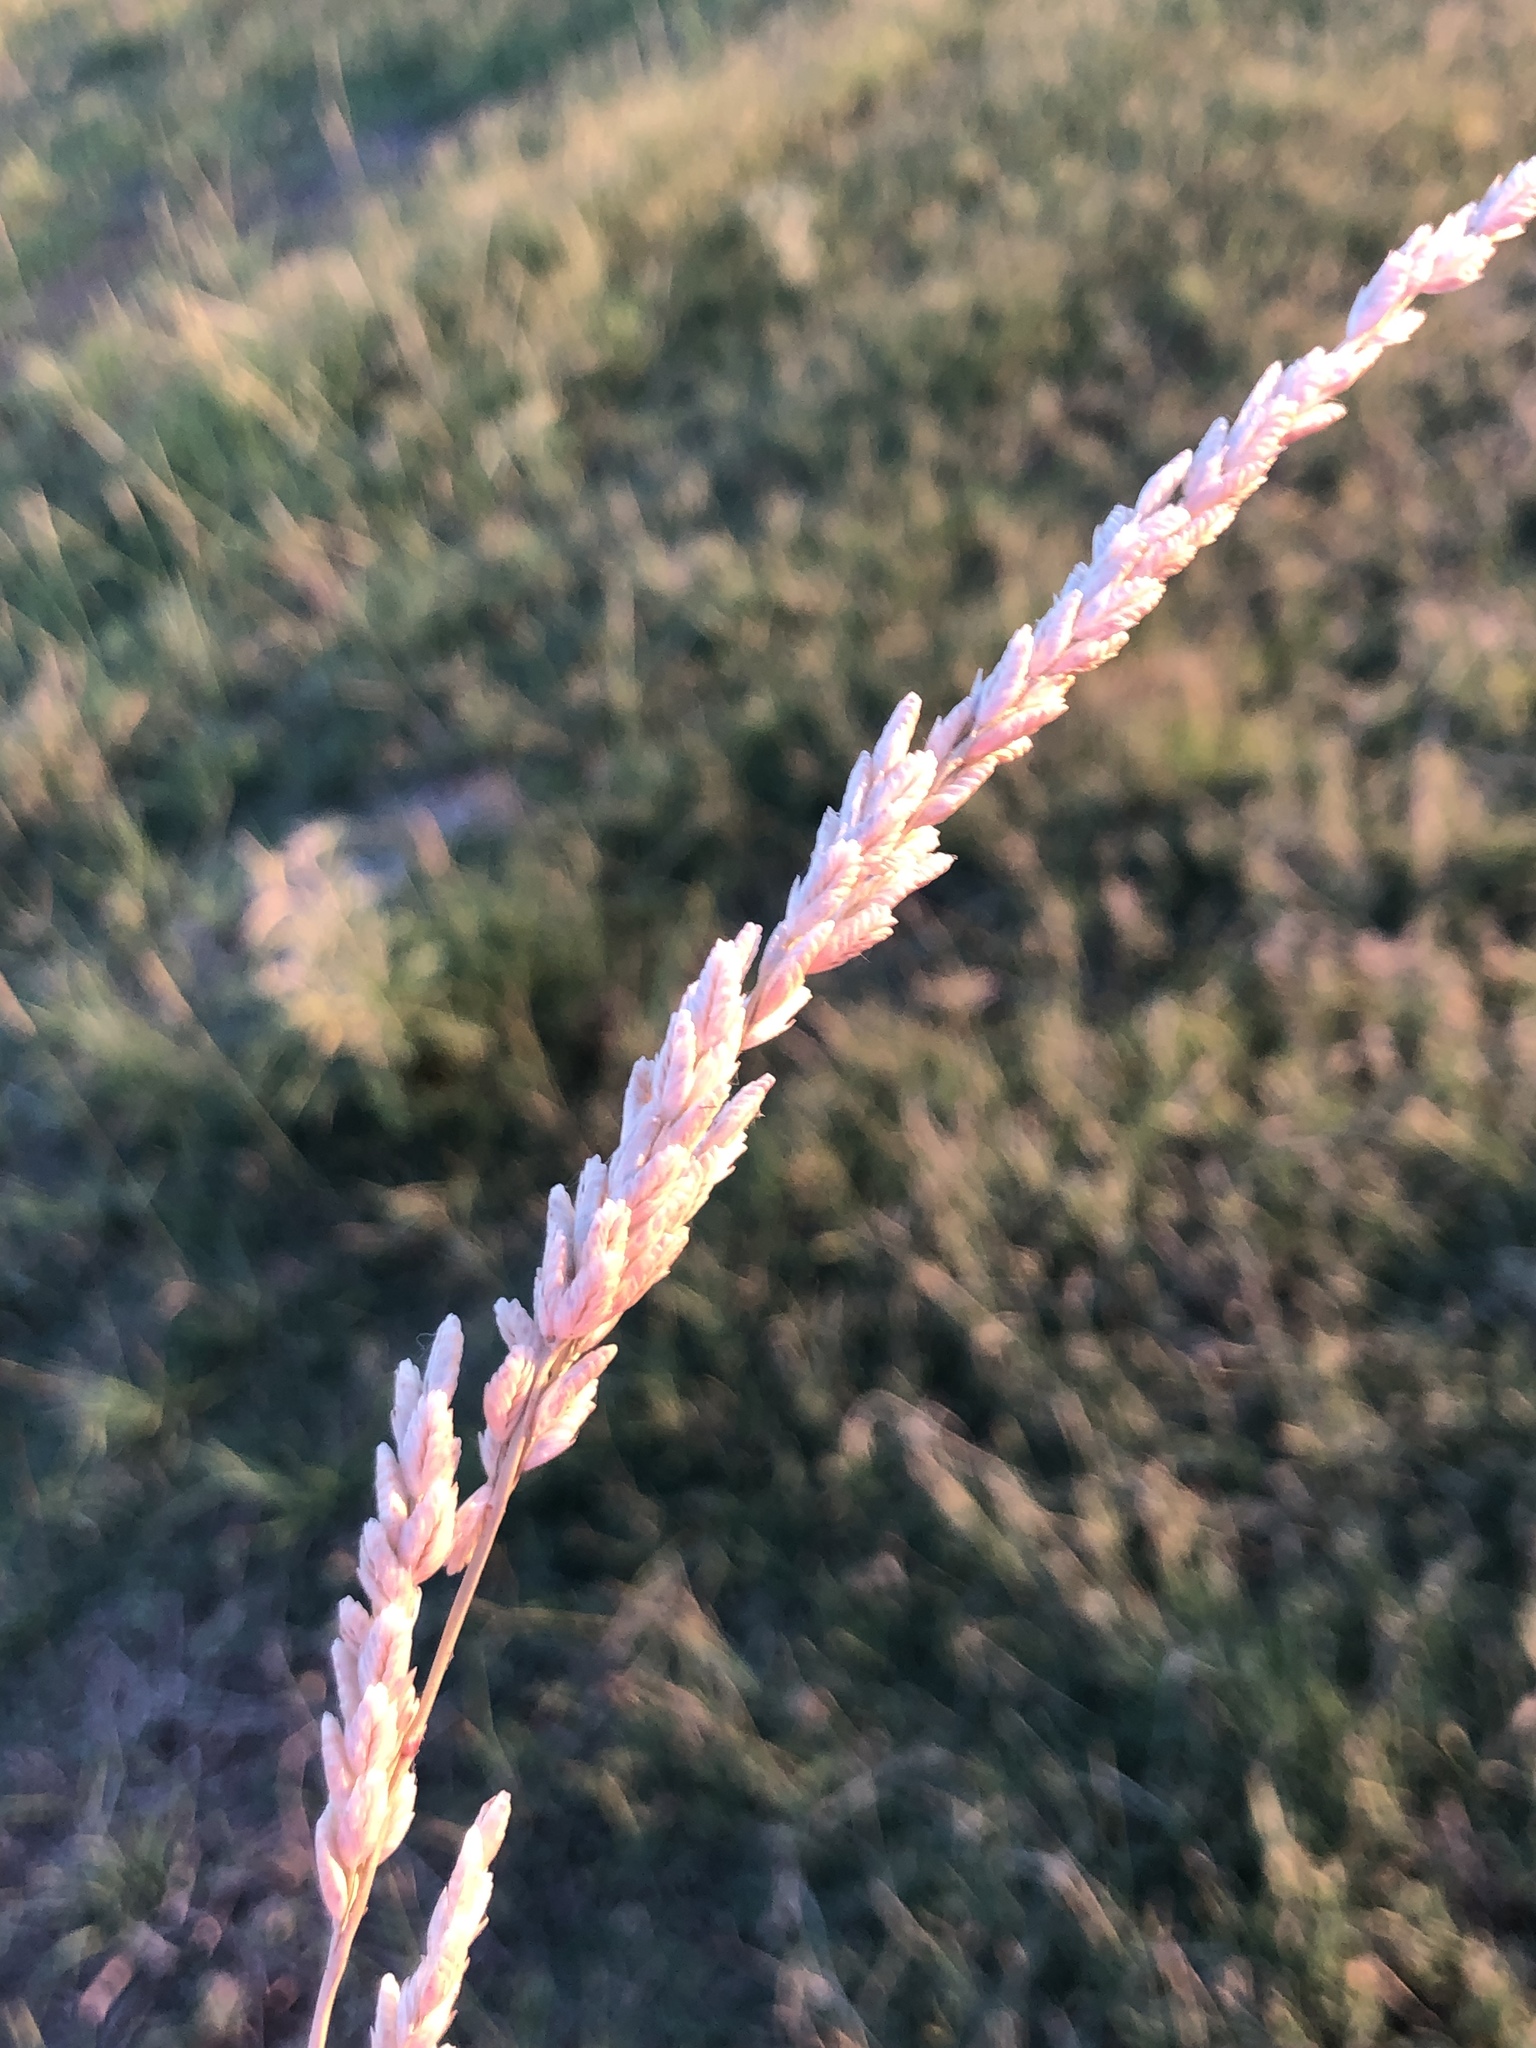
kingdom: Plantae
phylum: Tracheophyta
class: Liliopsida
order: Poales
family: Poaceae
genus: Tridens
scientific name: Tridens albescens
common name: White tridens
